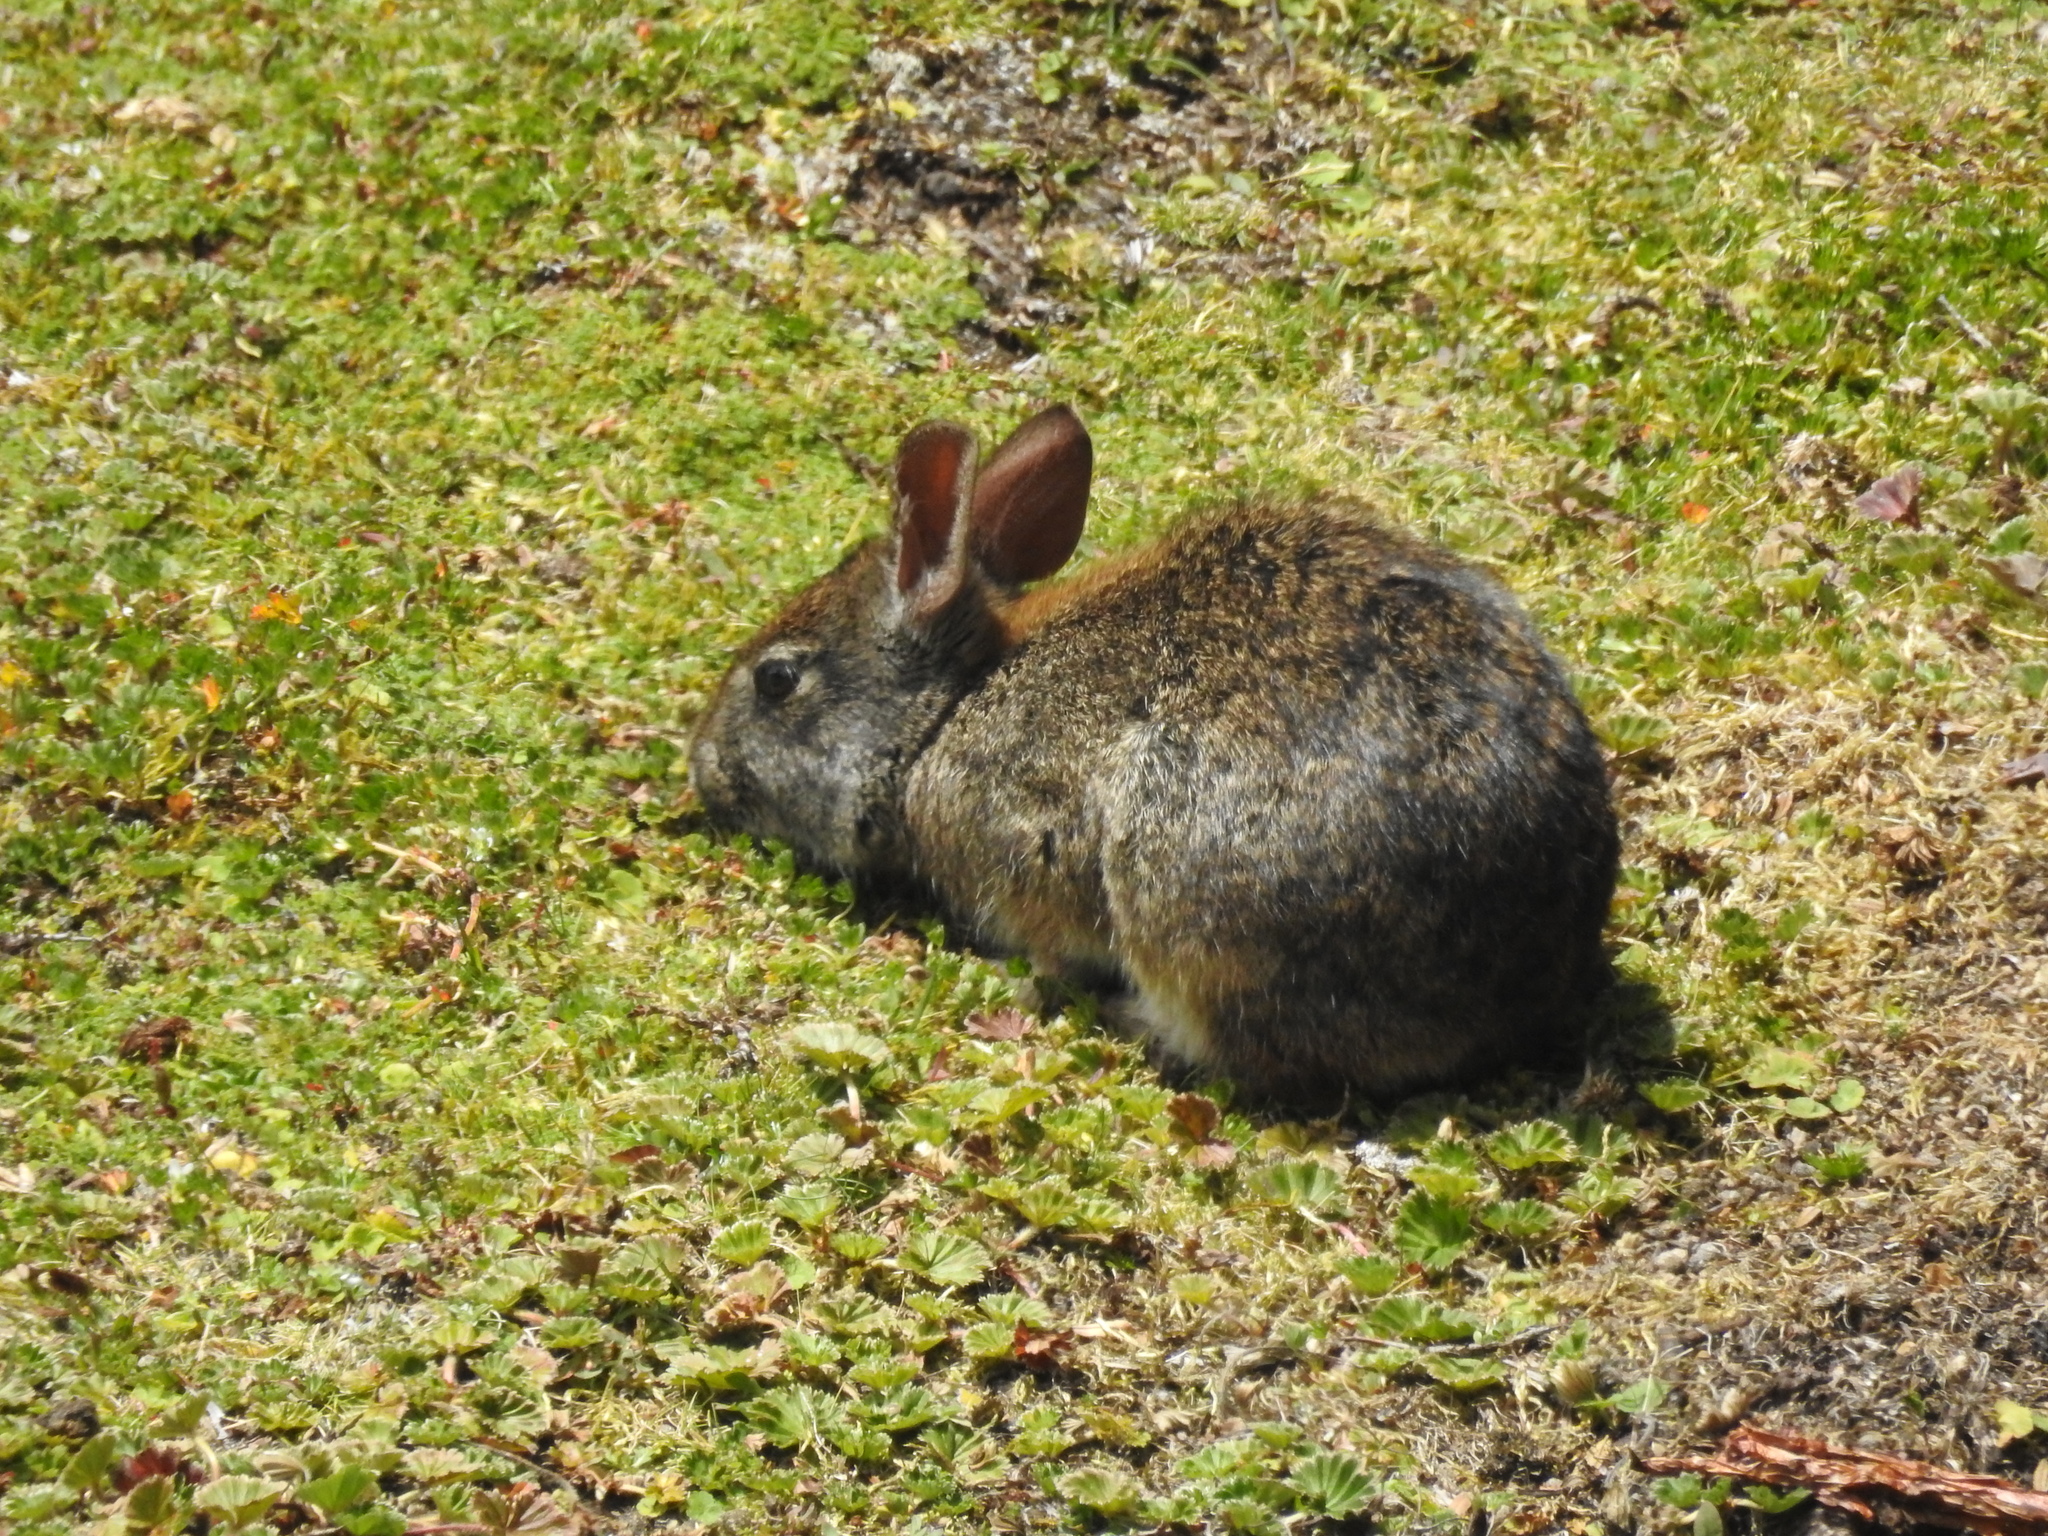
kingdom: Animalia
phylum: Chordata
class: Mammalia
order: Lagomorpha
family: Leporidae
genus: Sylvilagus
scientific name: Sylvilagus andinus
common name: Andean cottontail
